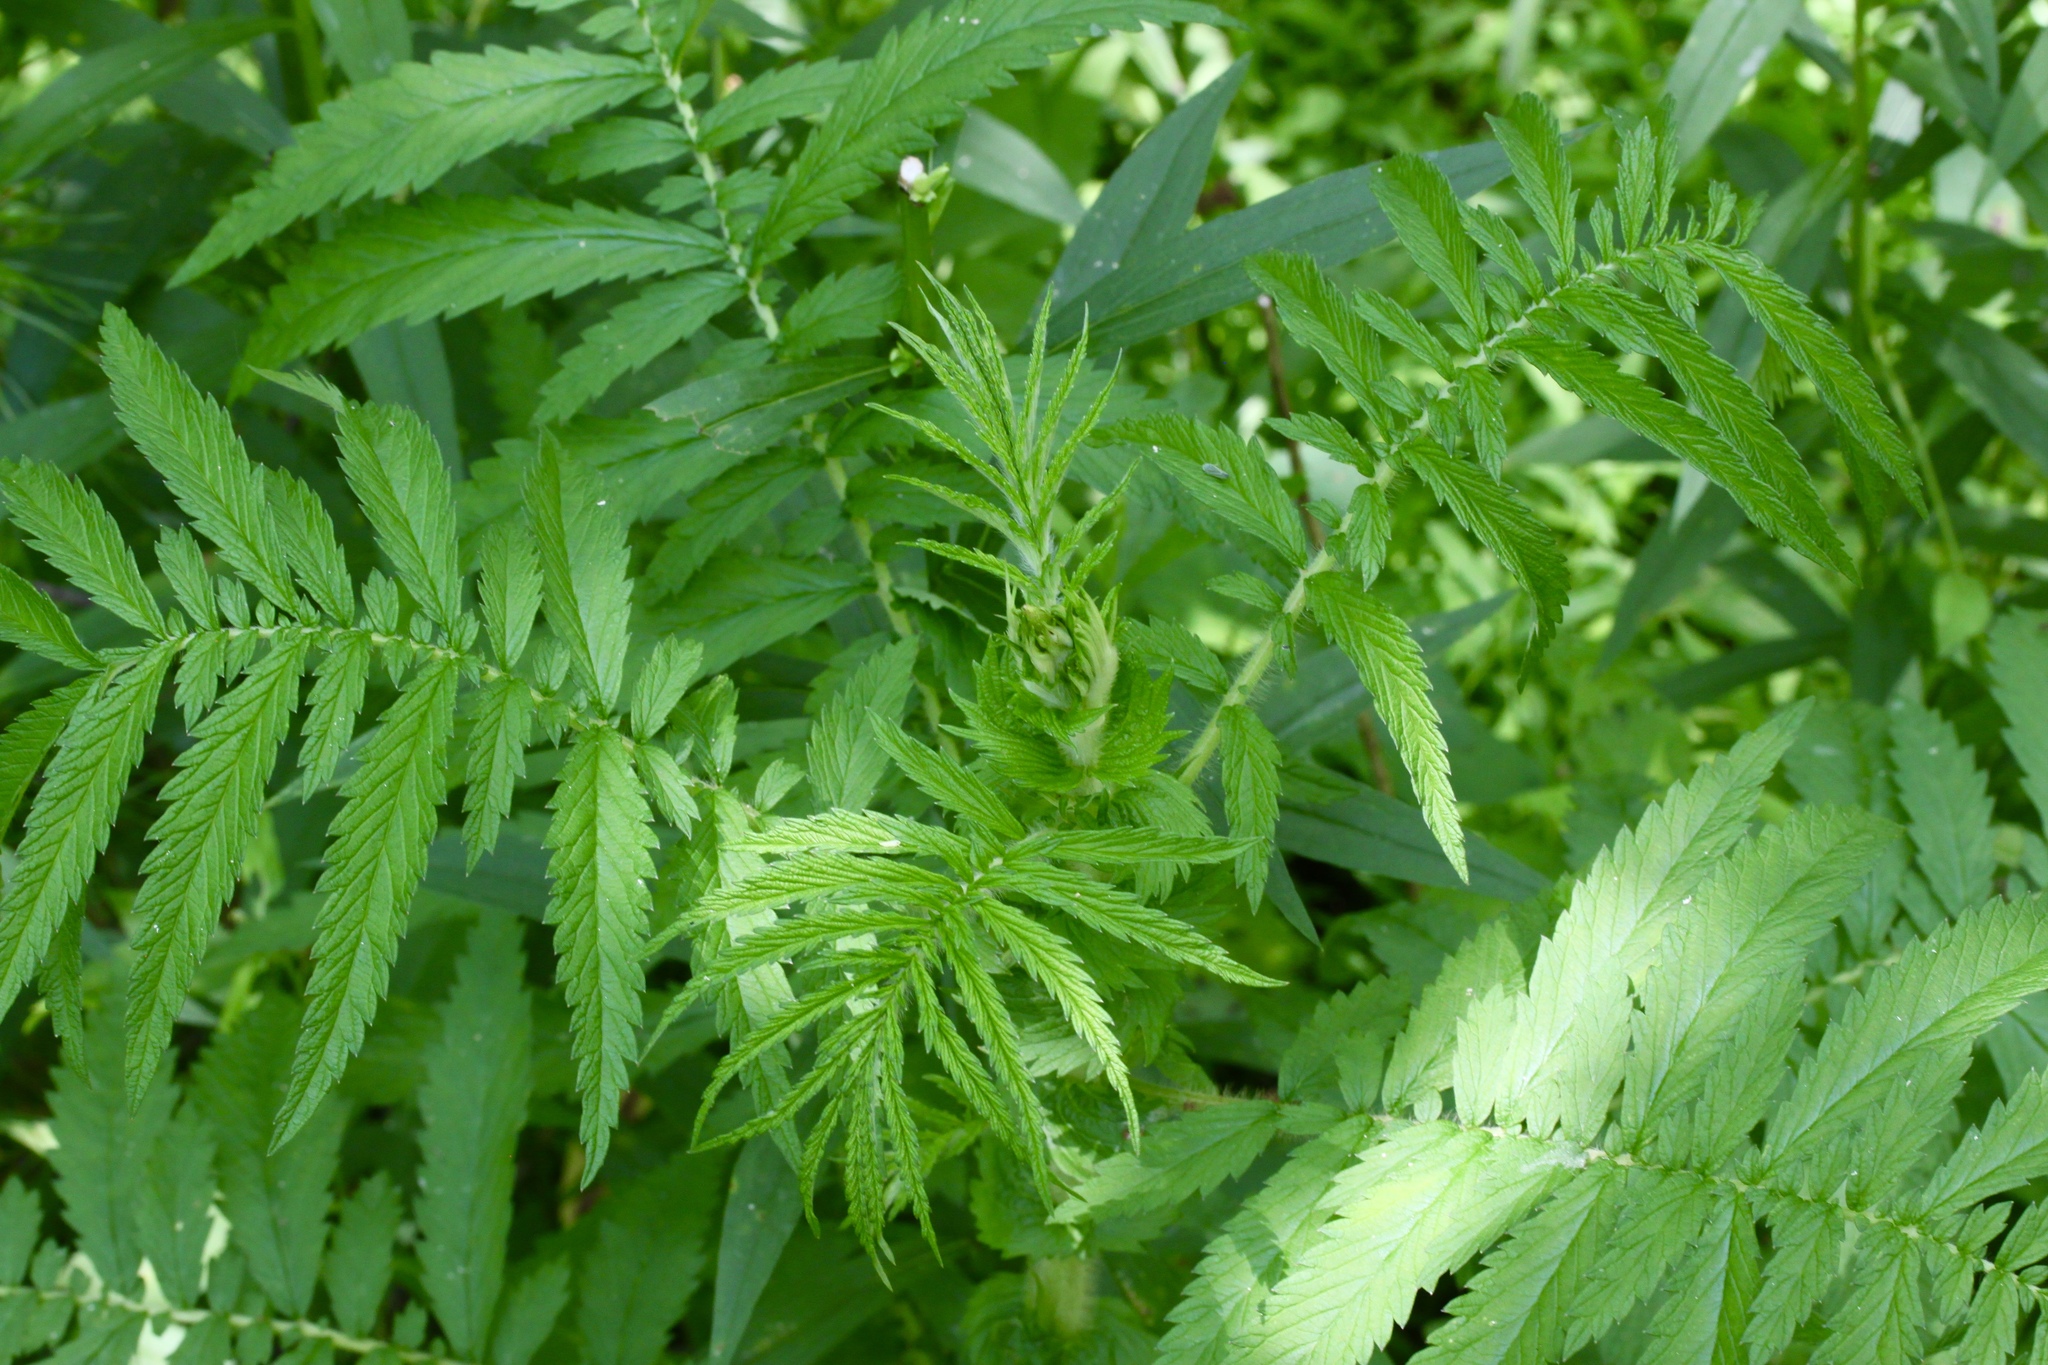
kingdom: Plantae
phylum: Tracheophyta
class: Magnoliopsida
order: Rosales
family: Rosaceae
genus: Agrimonia
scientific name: Agrimonia parviflora
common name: Harvest-lice
